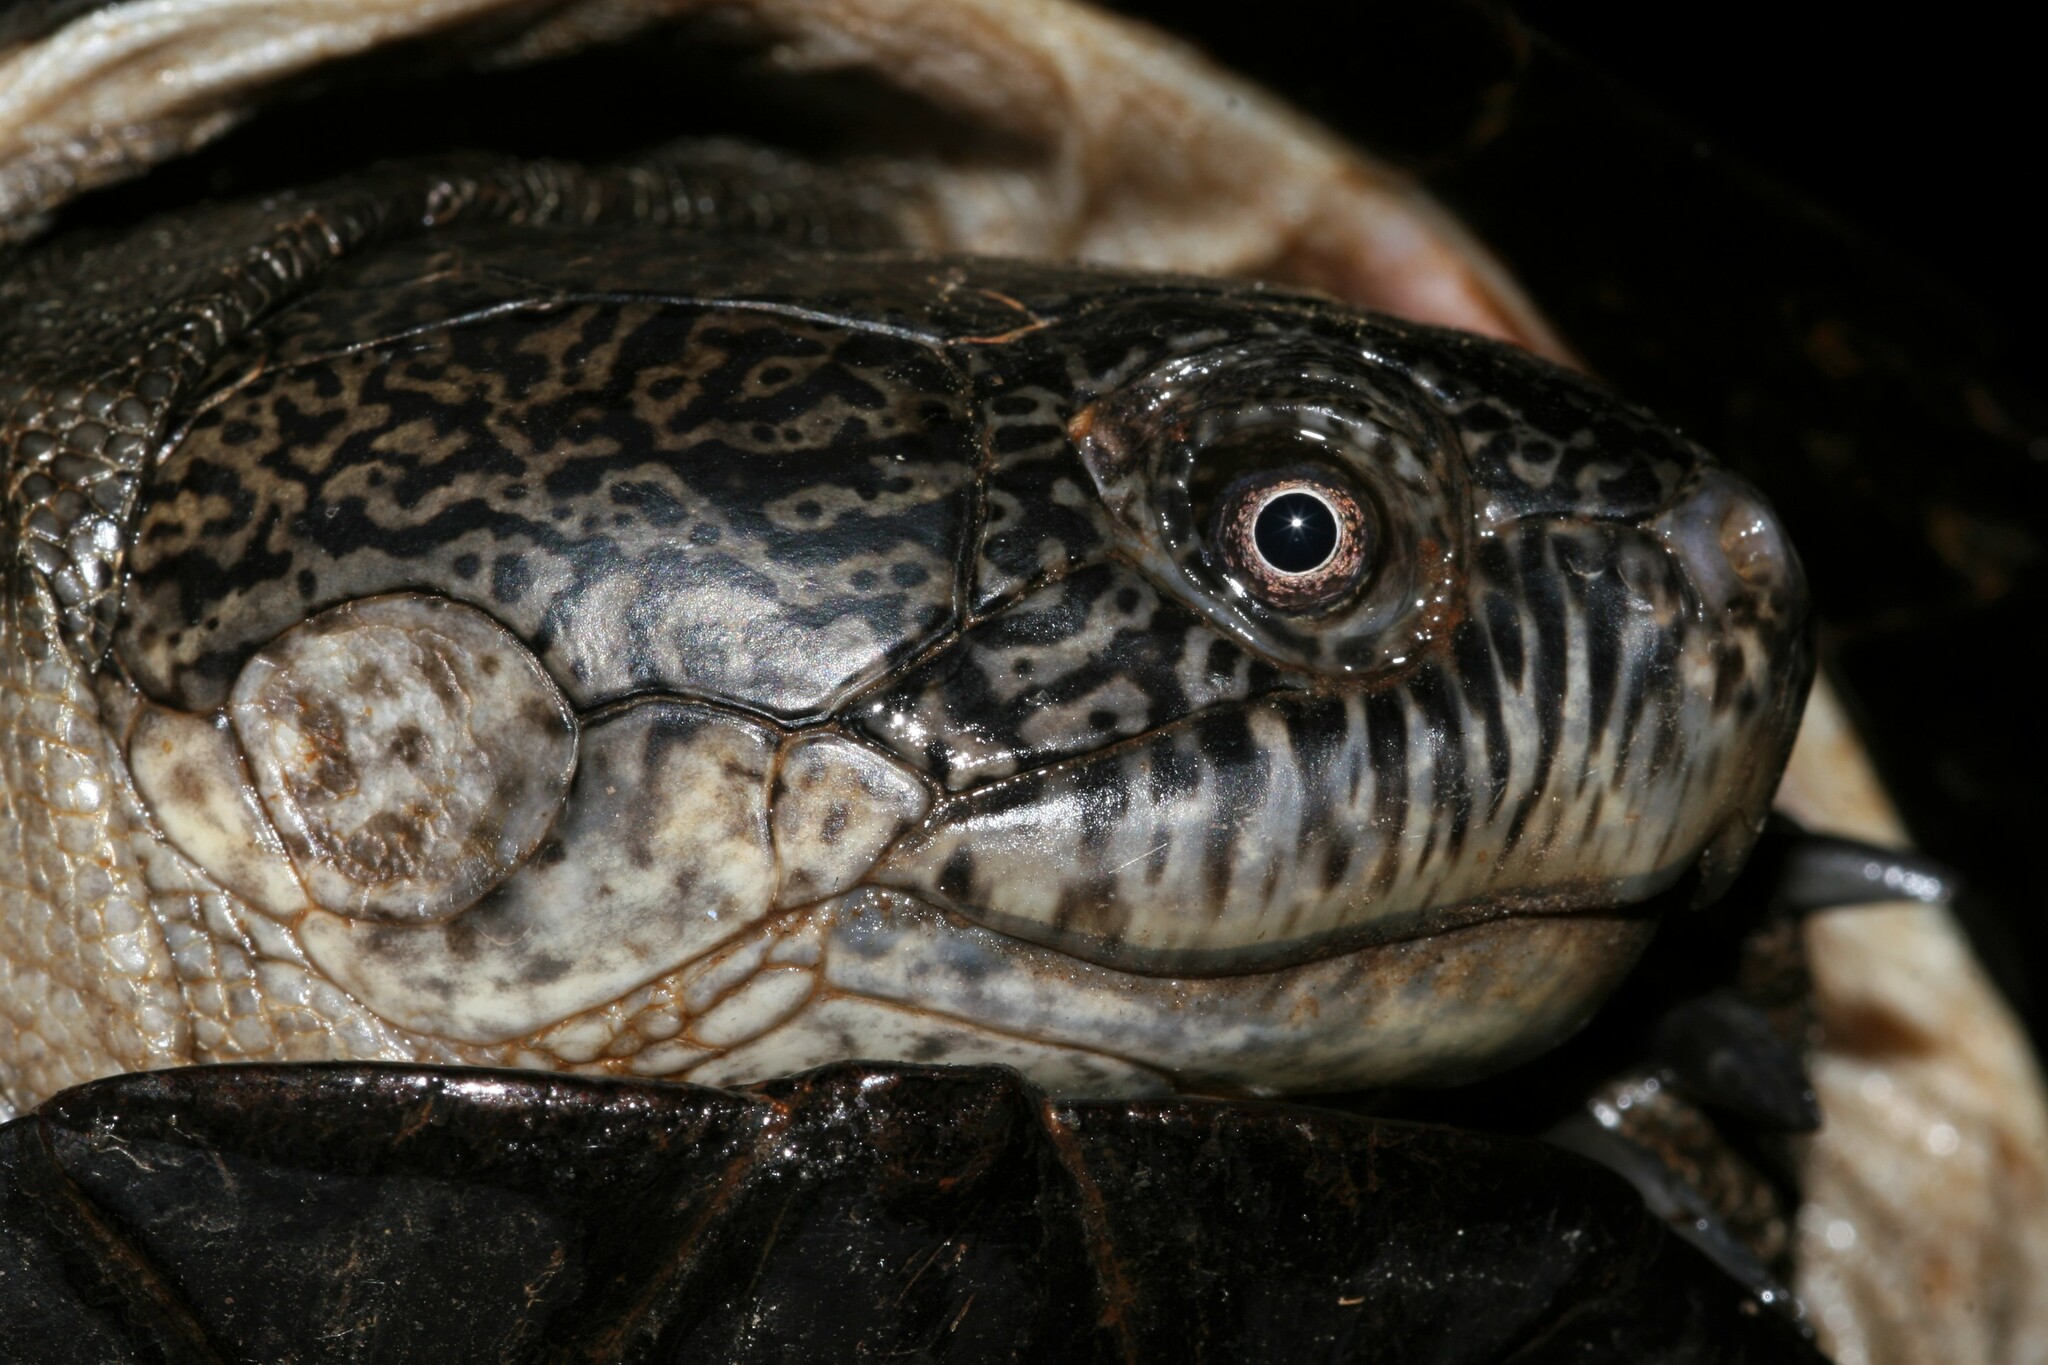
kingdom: Animalia
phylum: Chordata
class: Testudines
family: Pelomedusidae
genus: Pelusios
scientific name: Pelusios castaneus
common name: West african mud turtle
